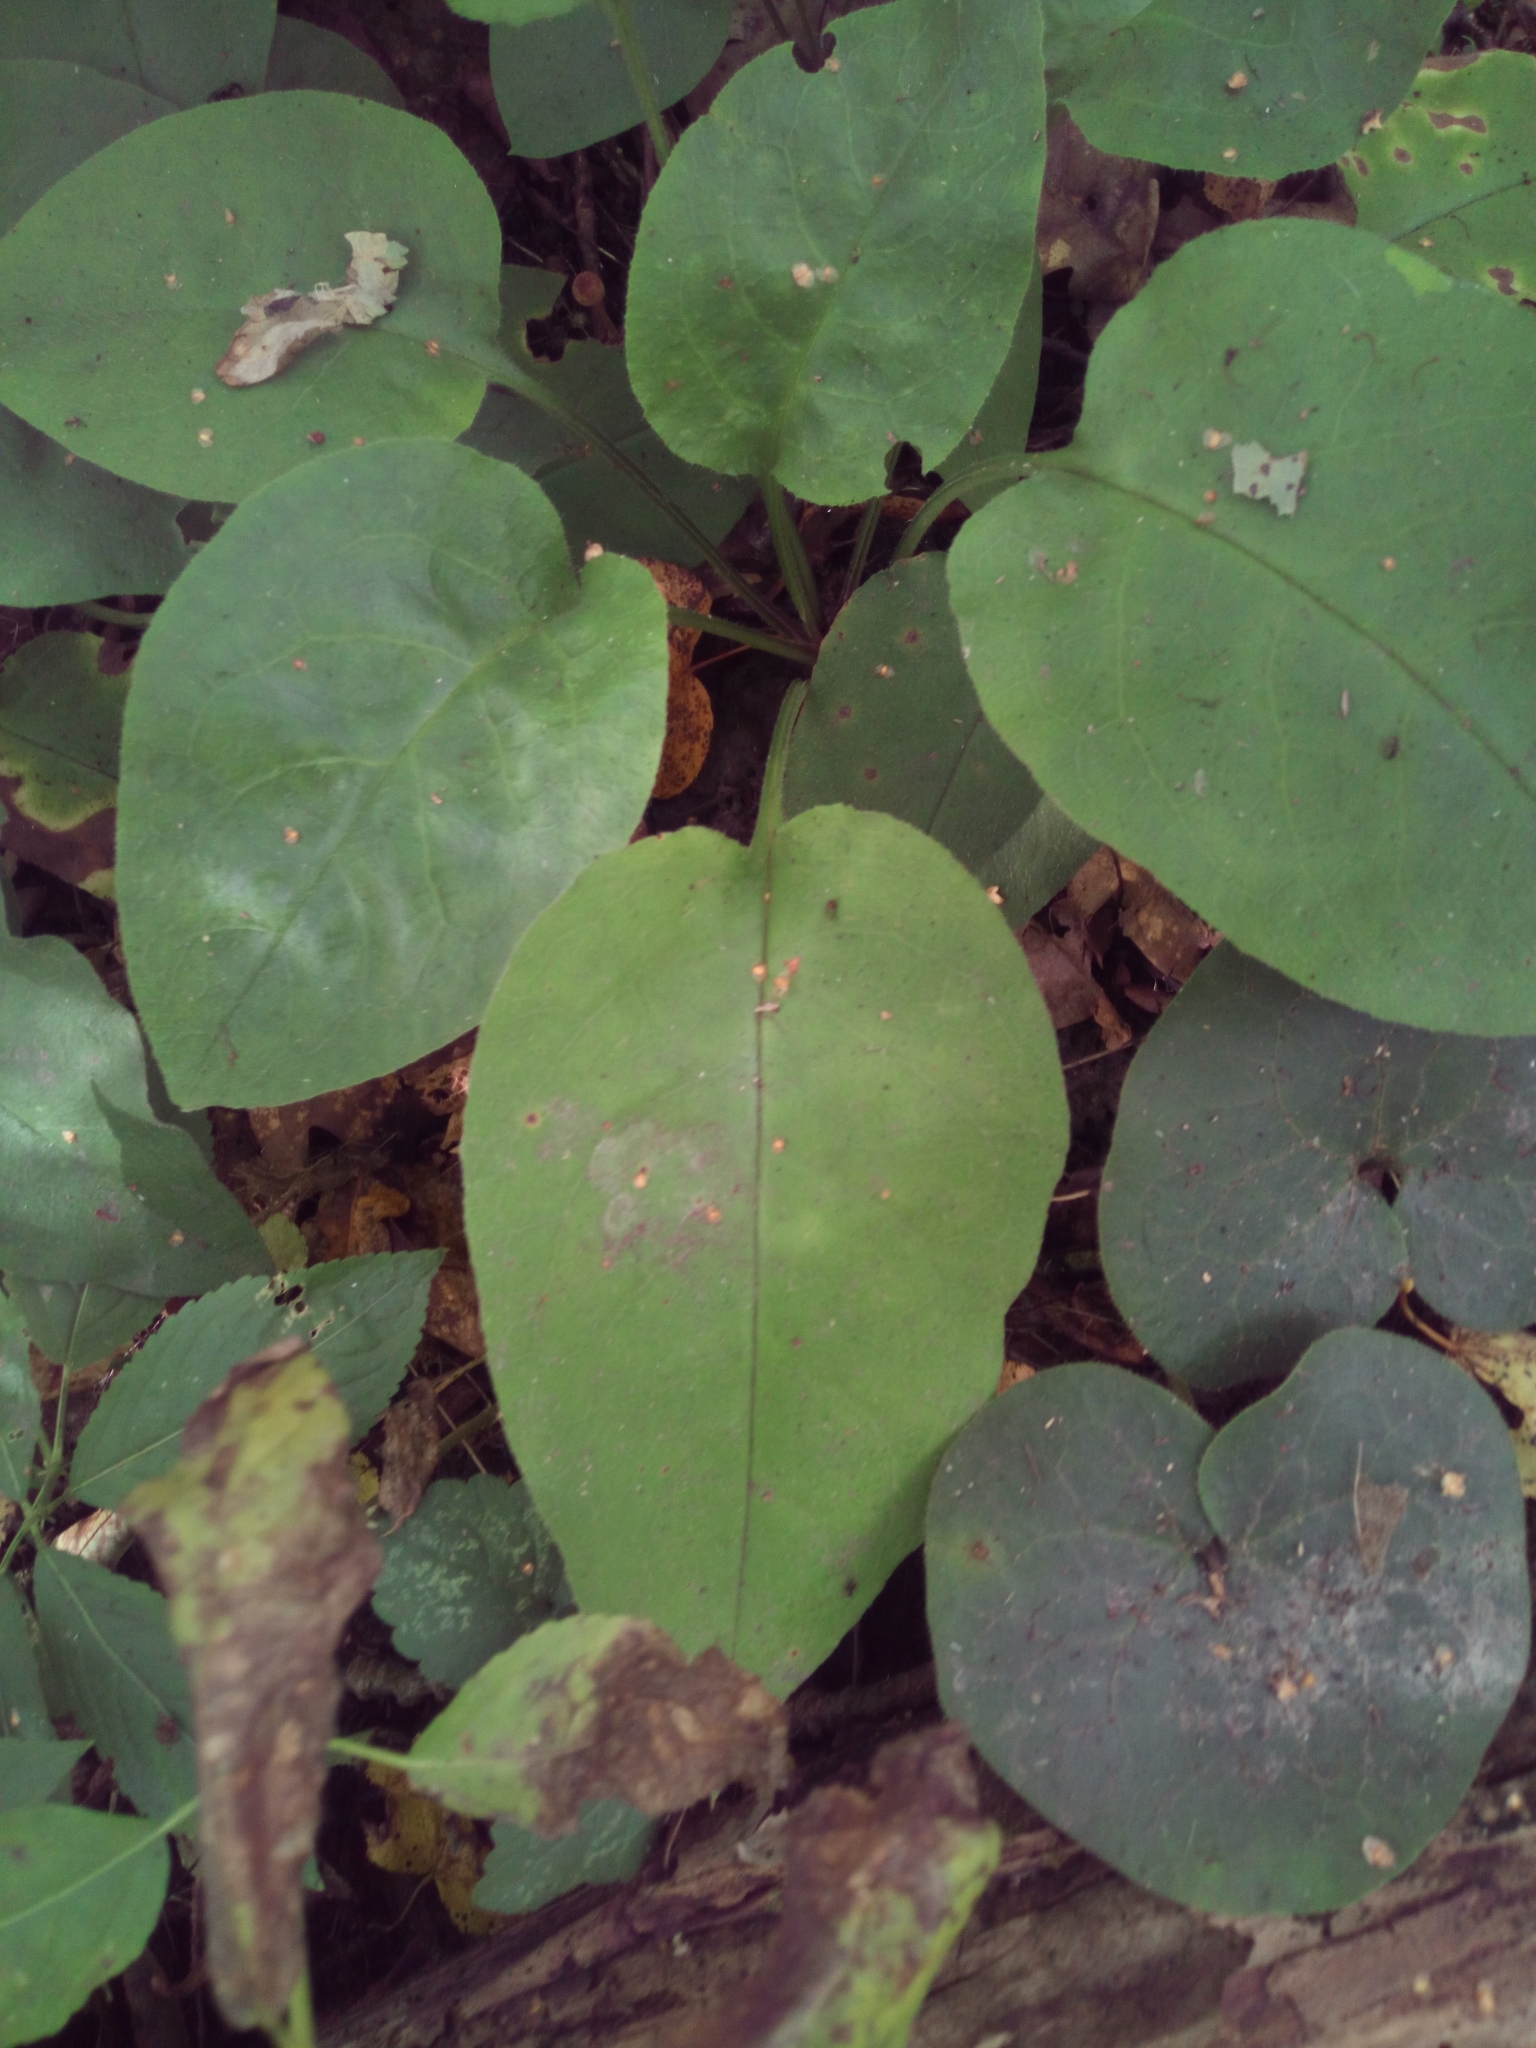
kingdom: Plantae
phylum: Tracheophyta
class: Magnoliopsida
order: Boraginales
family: Boraginaceae
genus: Pulmonaria
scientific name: Pulmonaria obscura
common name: Suffolk lungwort
